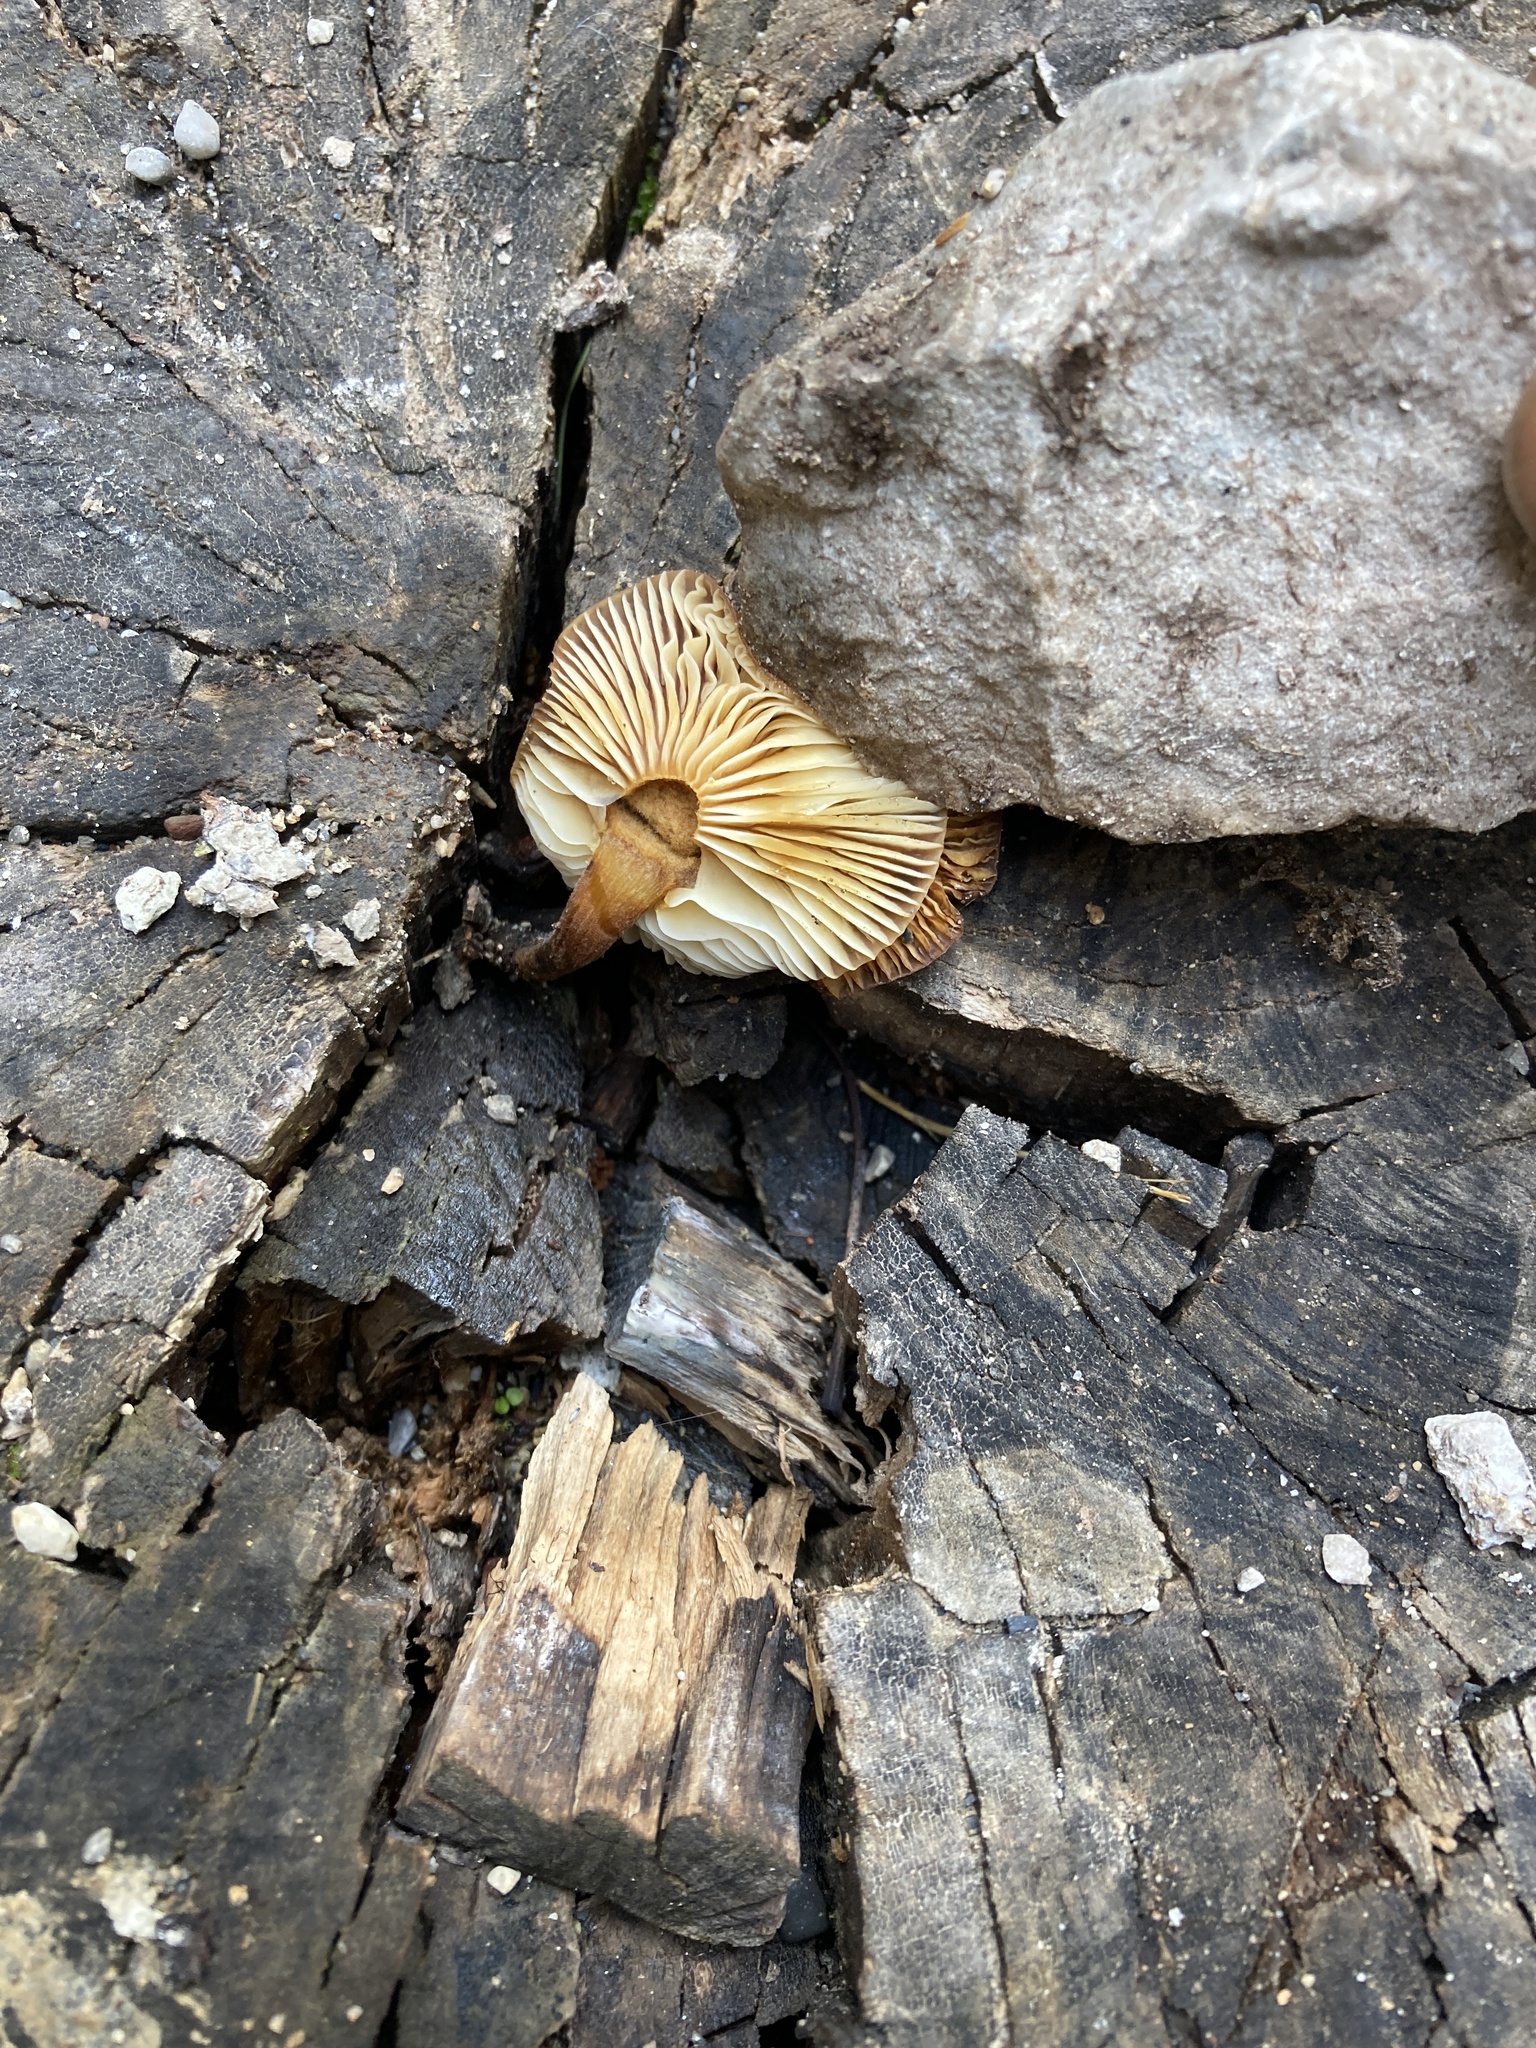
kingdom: Fungi
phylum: Basidiomycota
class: Agaricomycetes
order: Agaricales
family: Physalacriaceae
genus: Flammulina
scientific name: Flammulina
